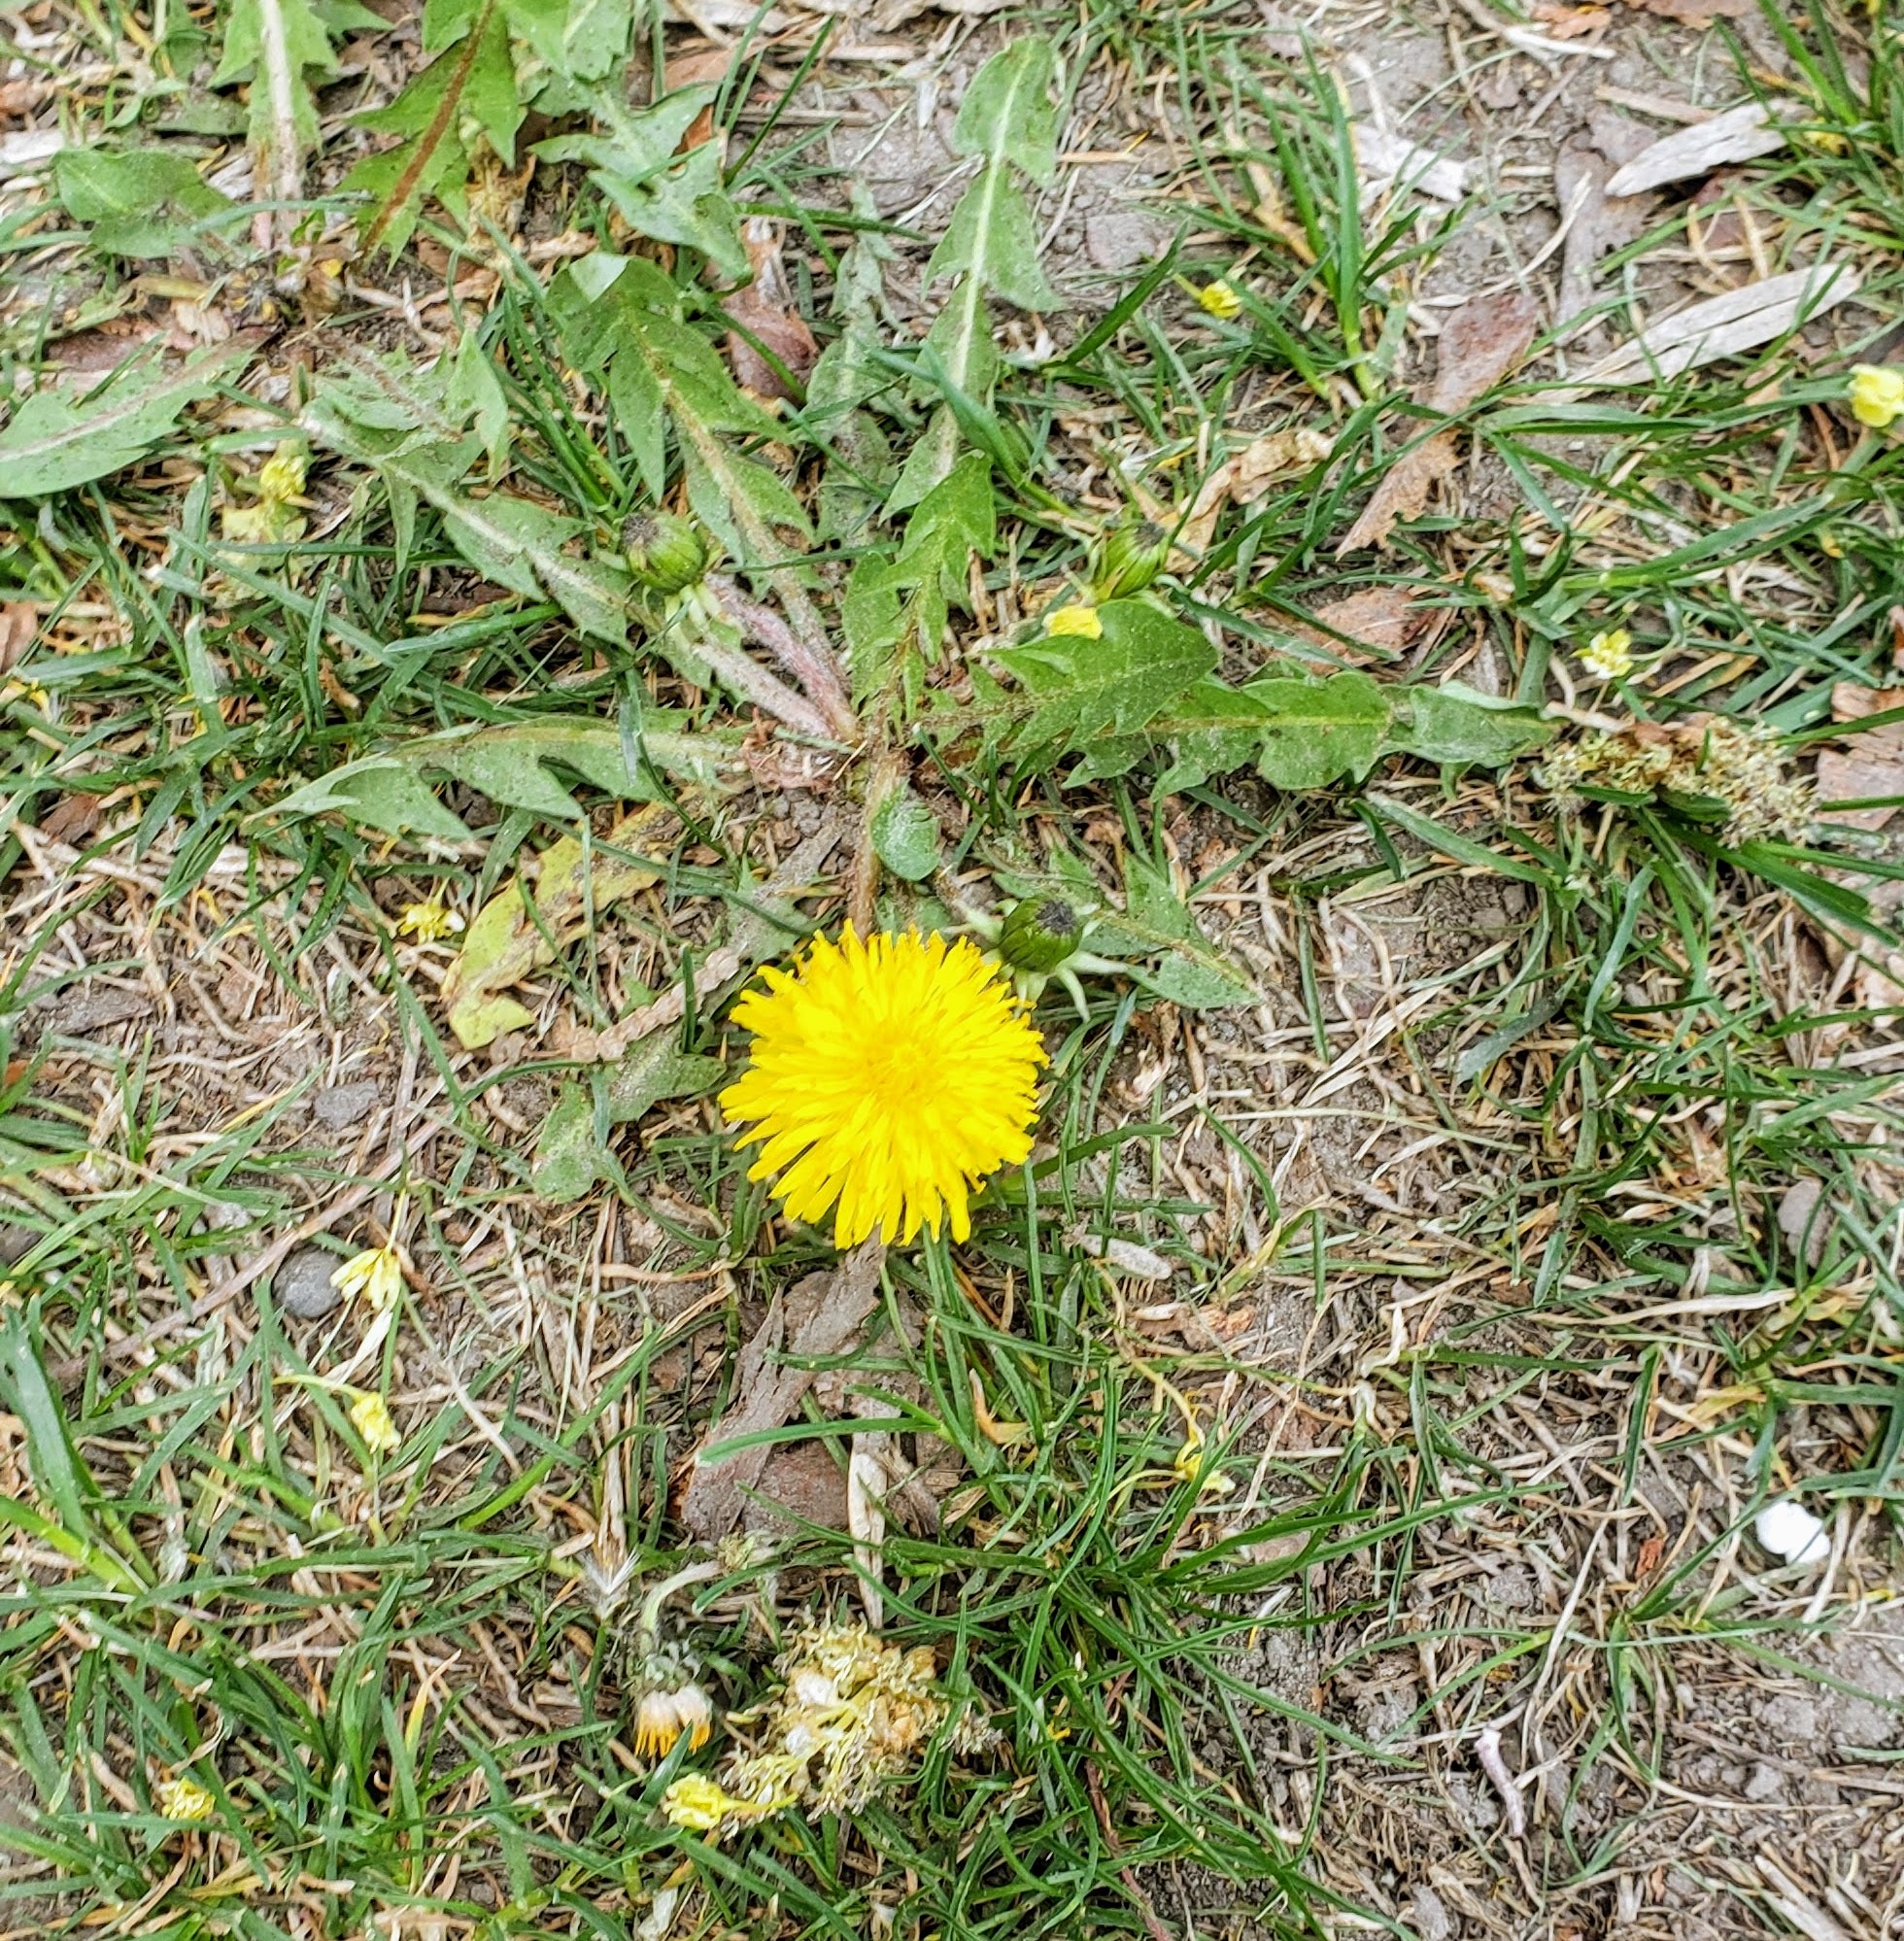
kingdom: Plantae
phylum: Tracheophyta
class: Magnoliopsida
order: Asterales
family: Asteraceae
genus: Taraxacum
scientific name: Taraxacum officinale
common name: Common dandelion
